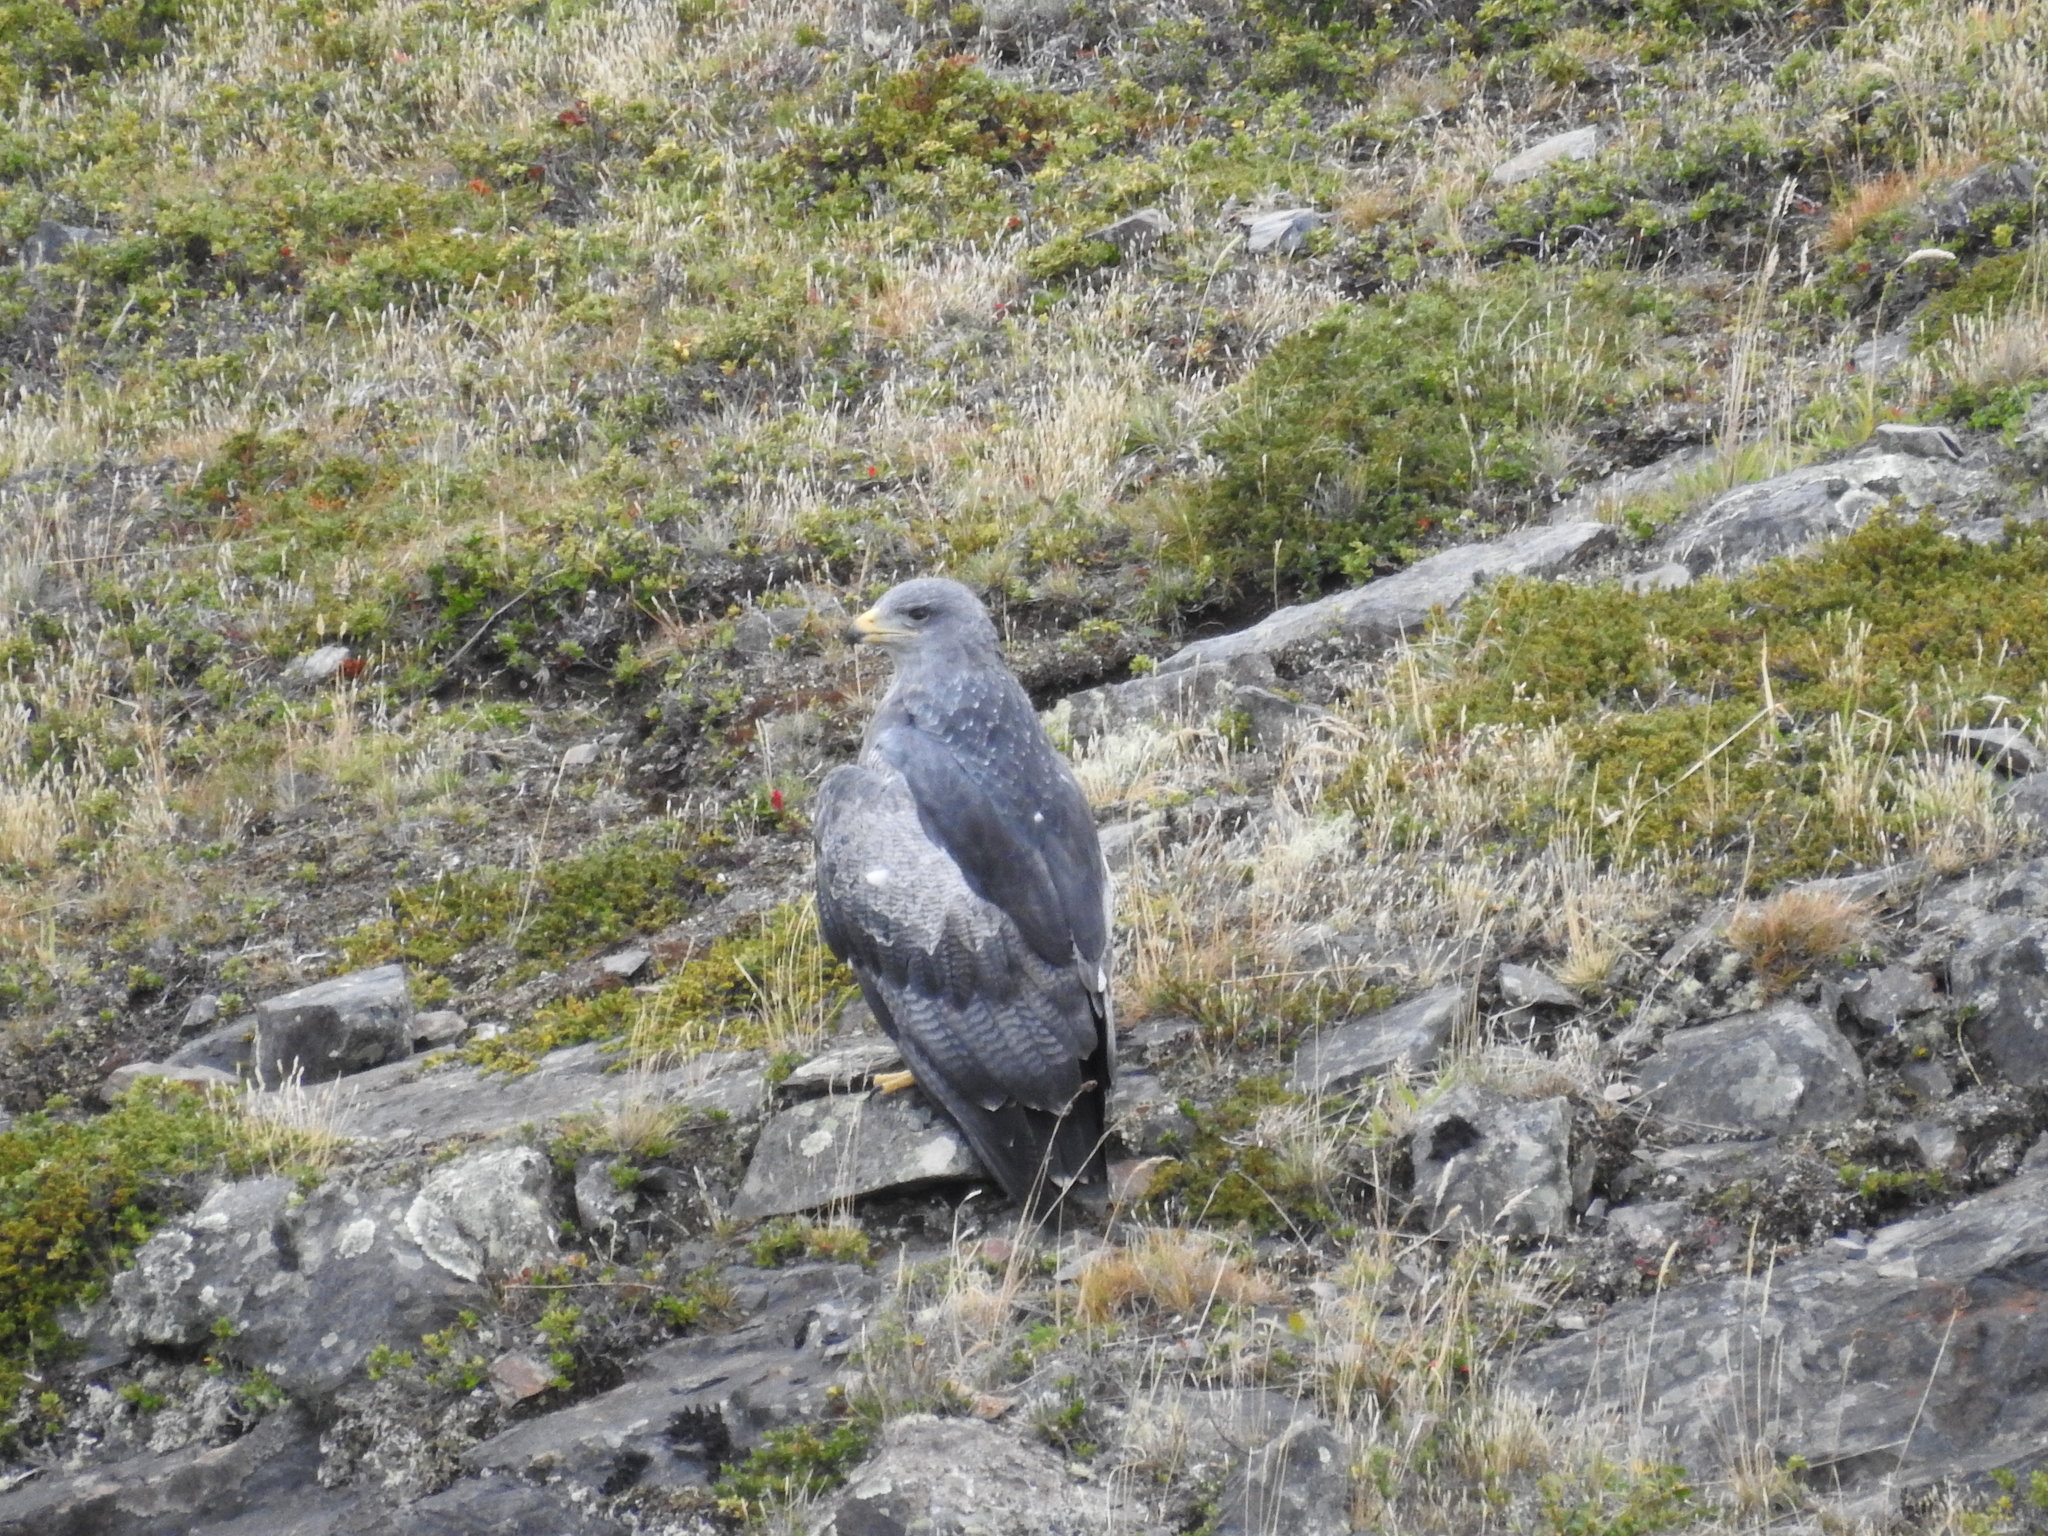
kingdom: Animalia
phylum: Chordata
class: Aves
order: Accipitriformes
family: Accipitridae
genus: Geranoaetus
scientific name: Geranoaetus melanoleucus
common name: Black-chested buzzard-eagle
